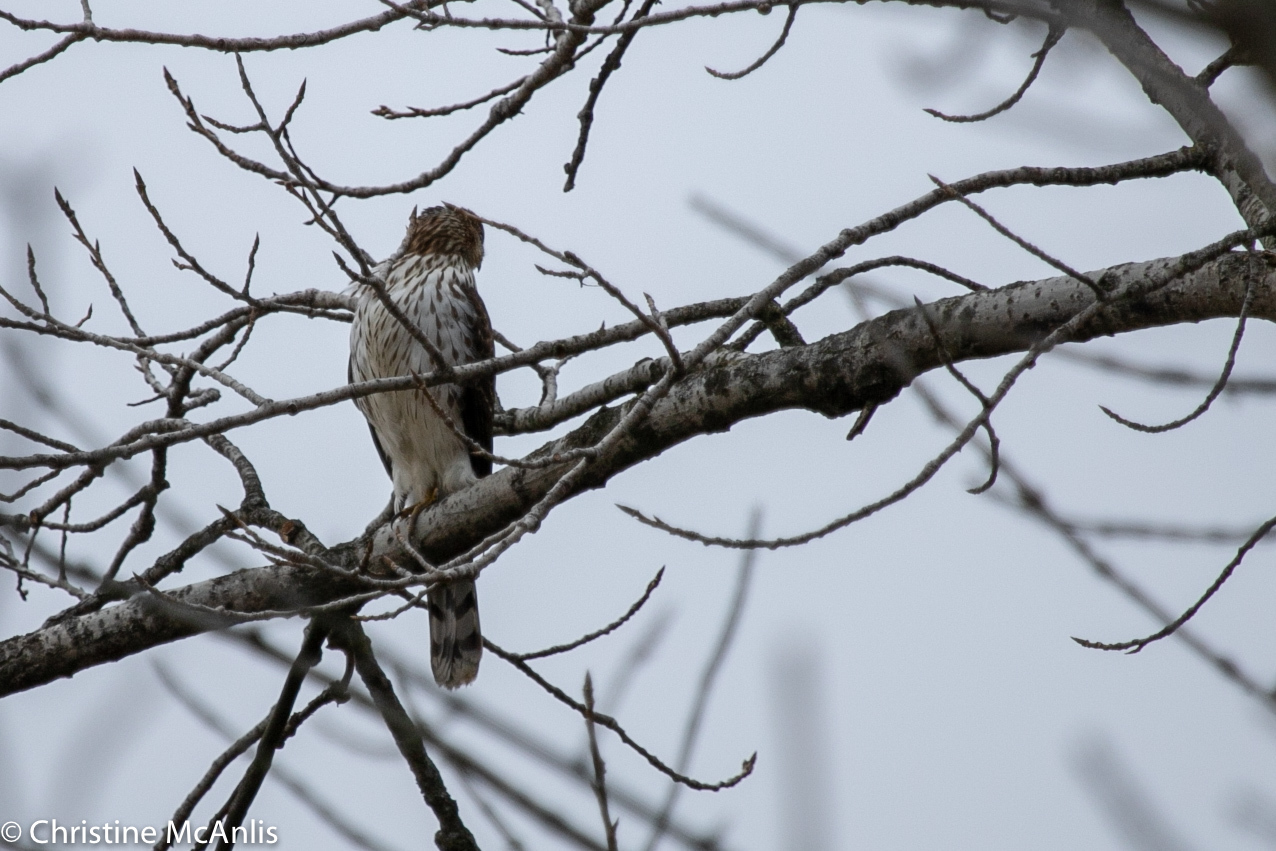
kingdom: Animalia
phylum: Chordata
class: Aves
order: Accipitriformes
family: Accipitridae
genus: Accipiter
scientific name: Accipiter cooperii
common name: Cooper's hawk
